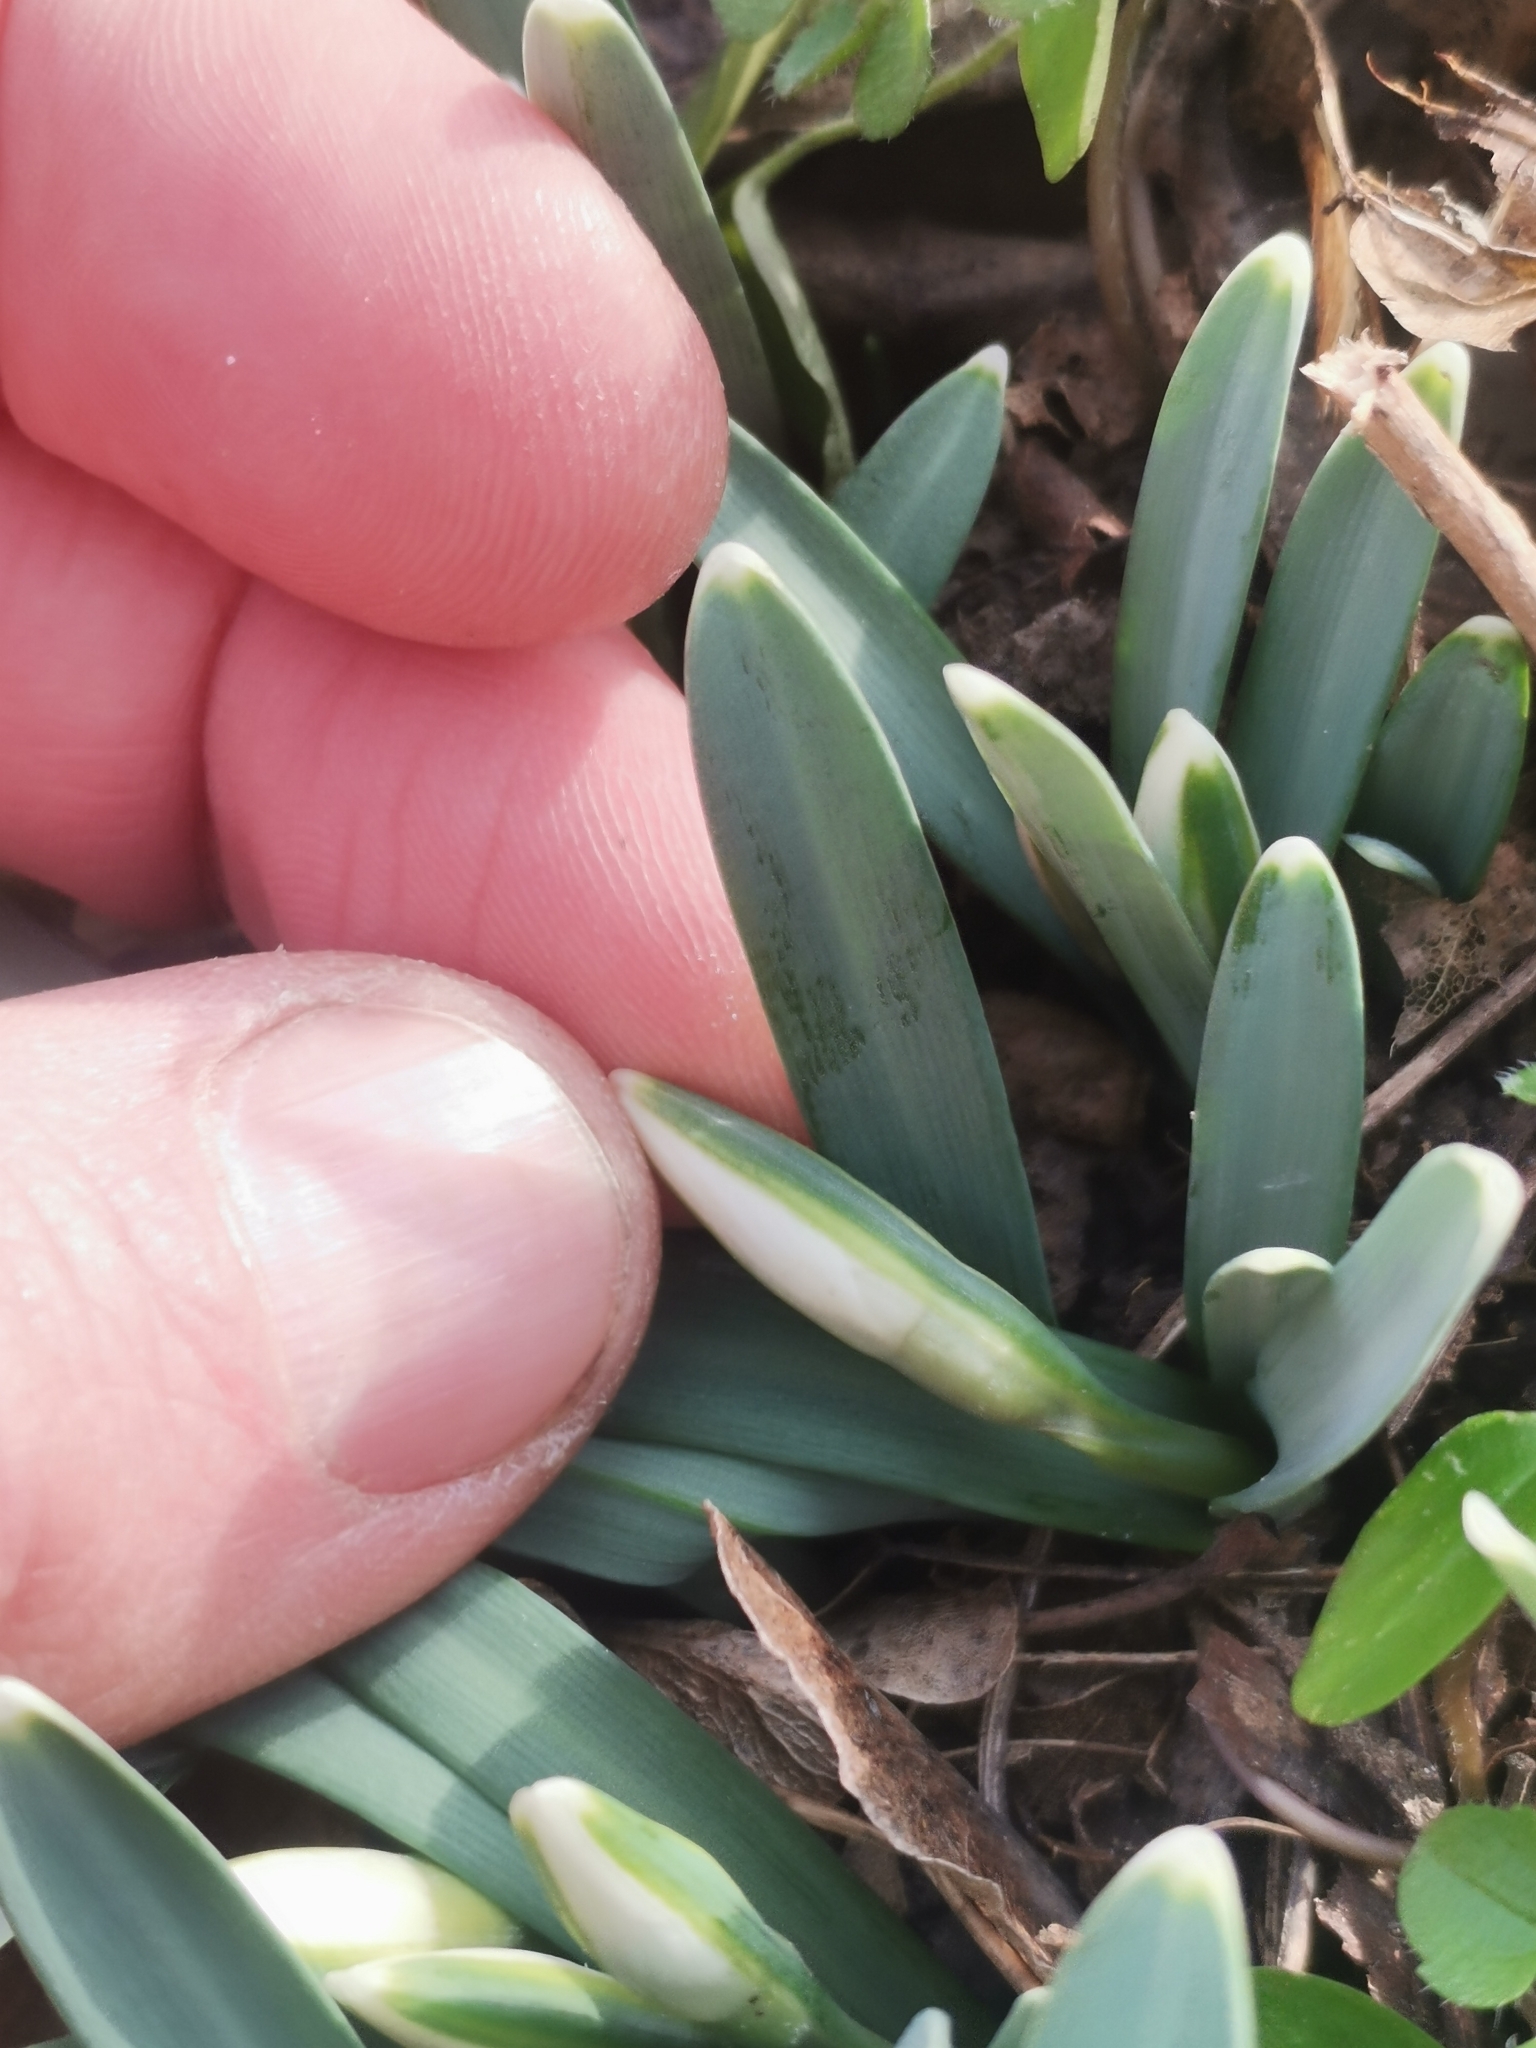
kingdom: Plantae
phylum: Tracheophyta
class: Liliopsida
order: Asparagales
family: Amaryllidaceae
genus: Galanthus
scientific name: Galanthus nivalis
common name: Snowdrop
